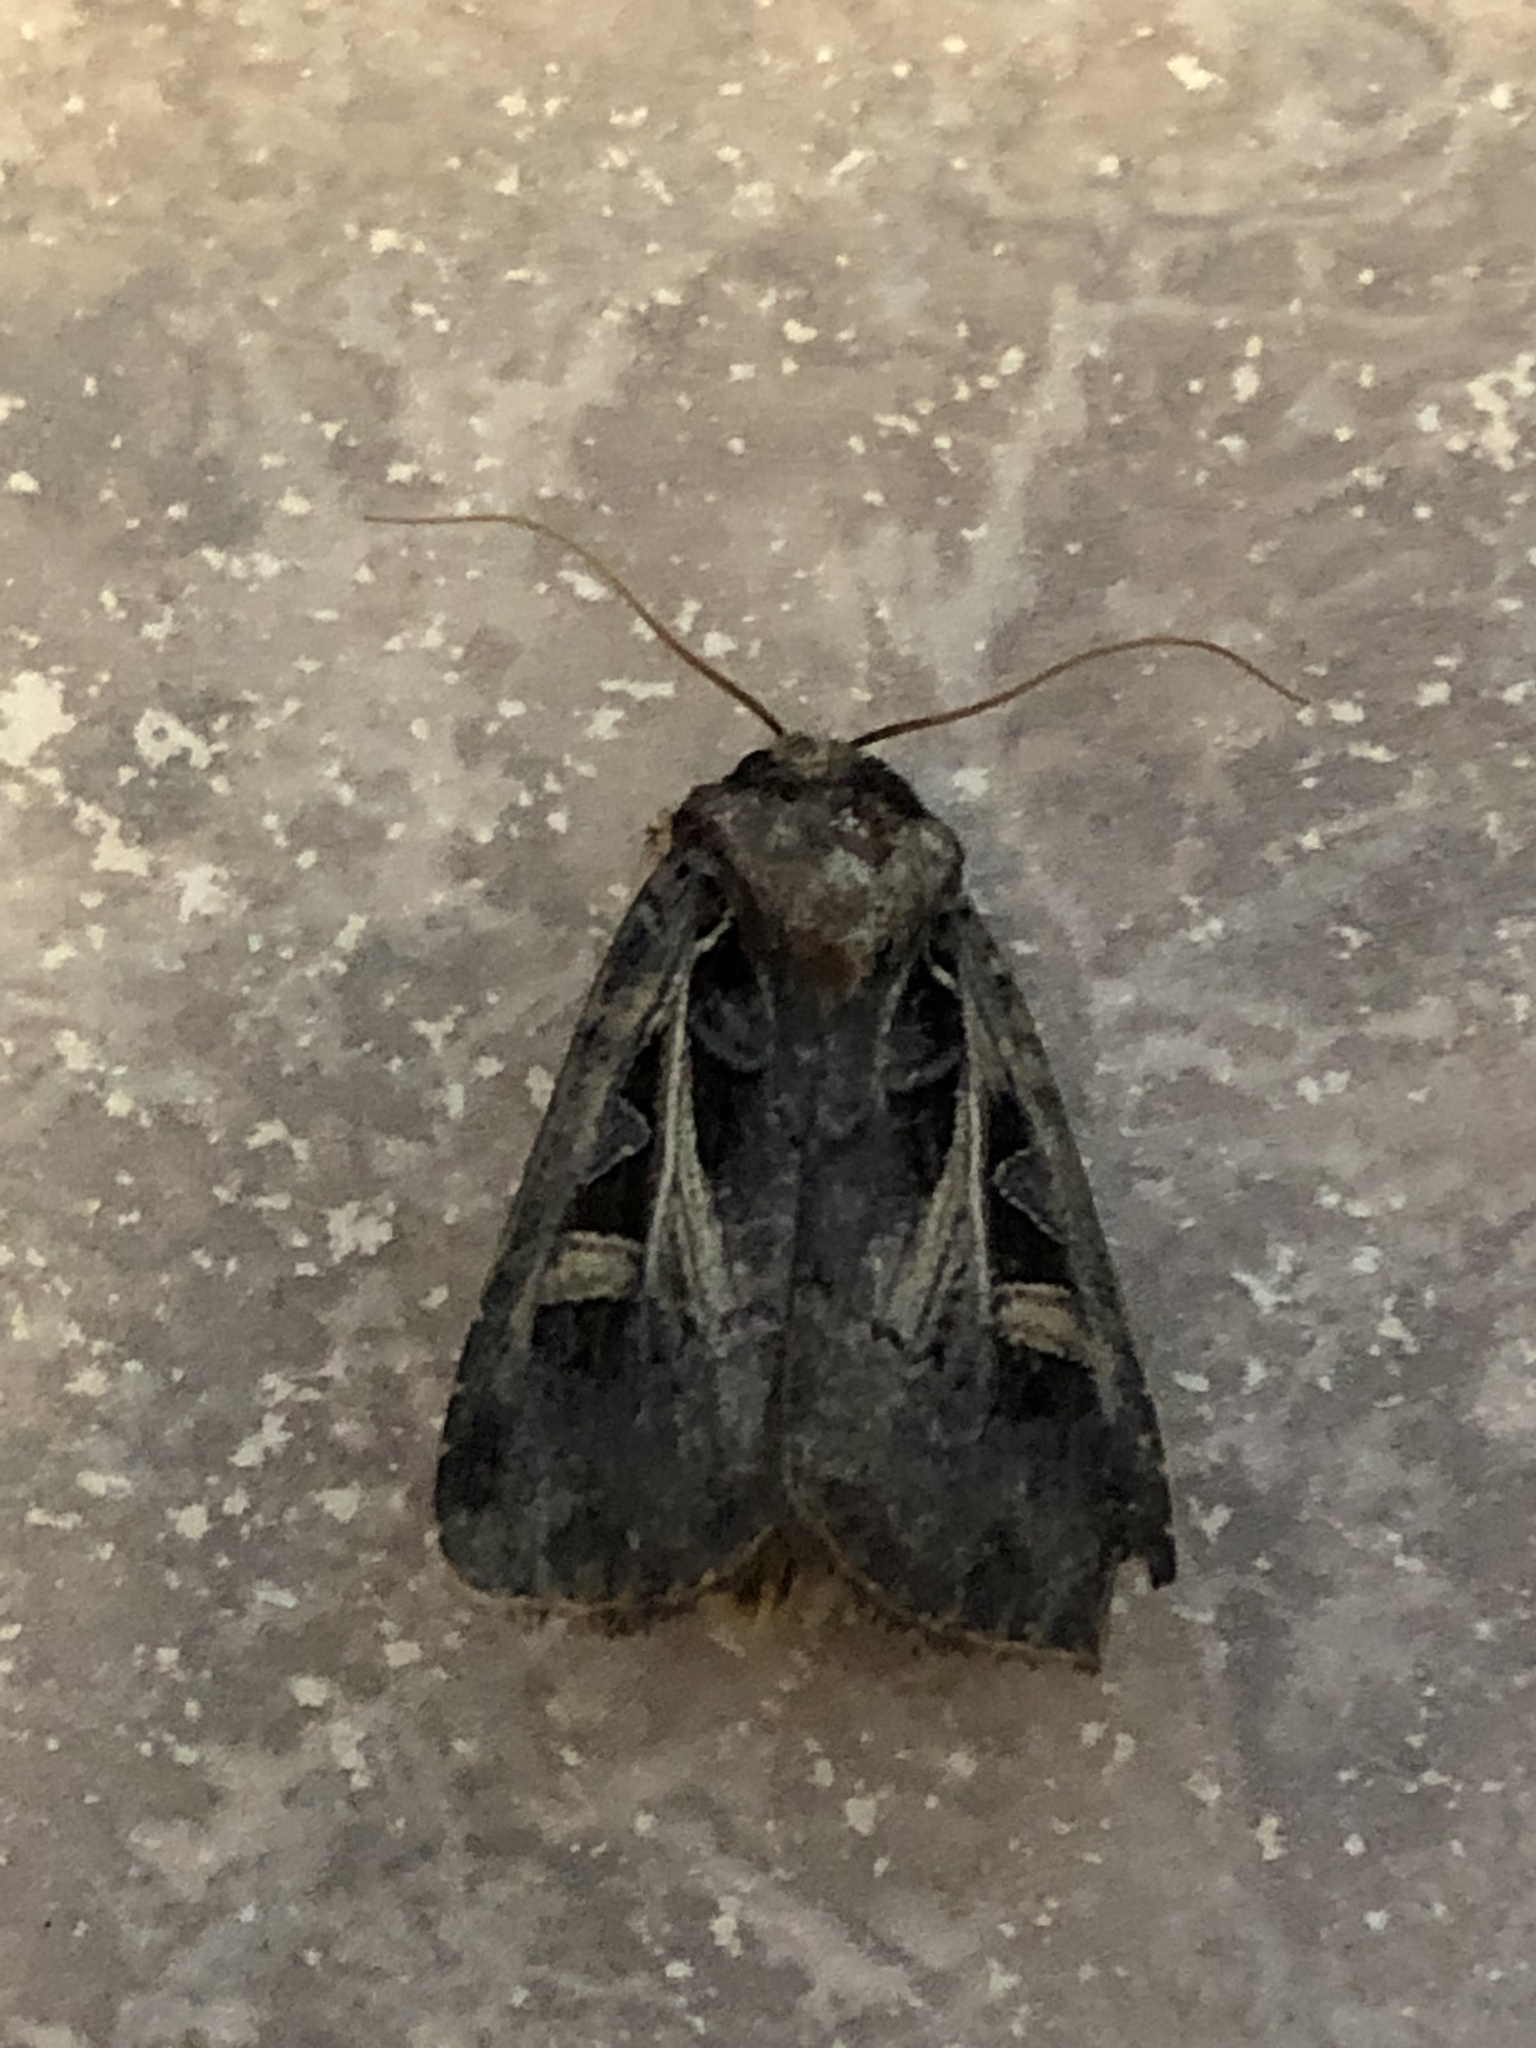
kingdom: Animalia
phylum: Arthropoda
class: Insecta
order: Lepidoptera
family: Noctuidae
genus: Feltia
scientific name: Feltia herilis
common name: Master's dart
